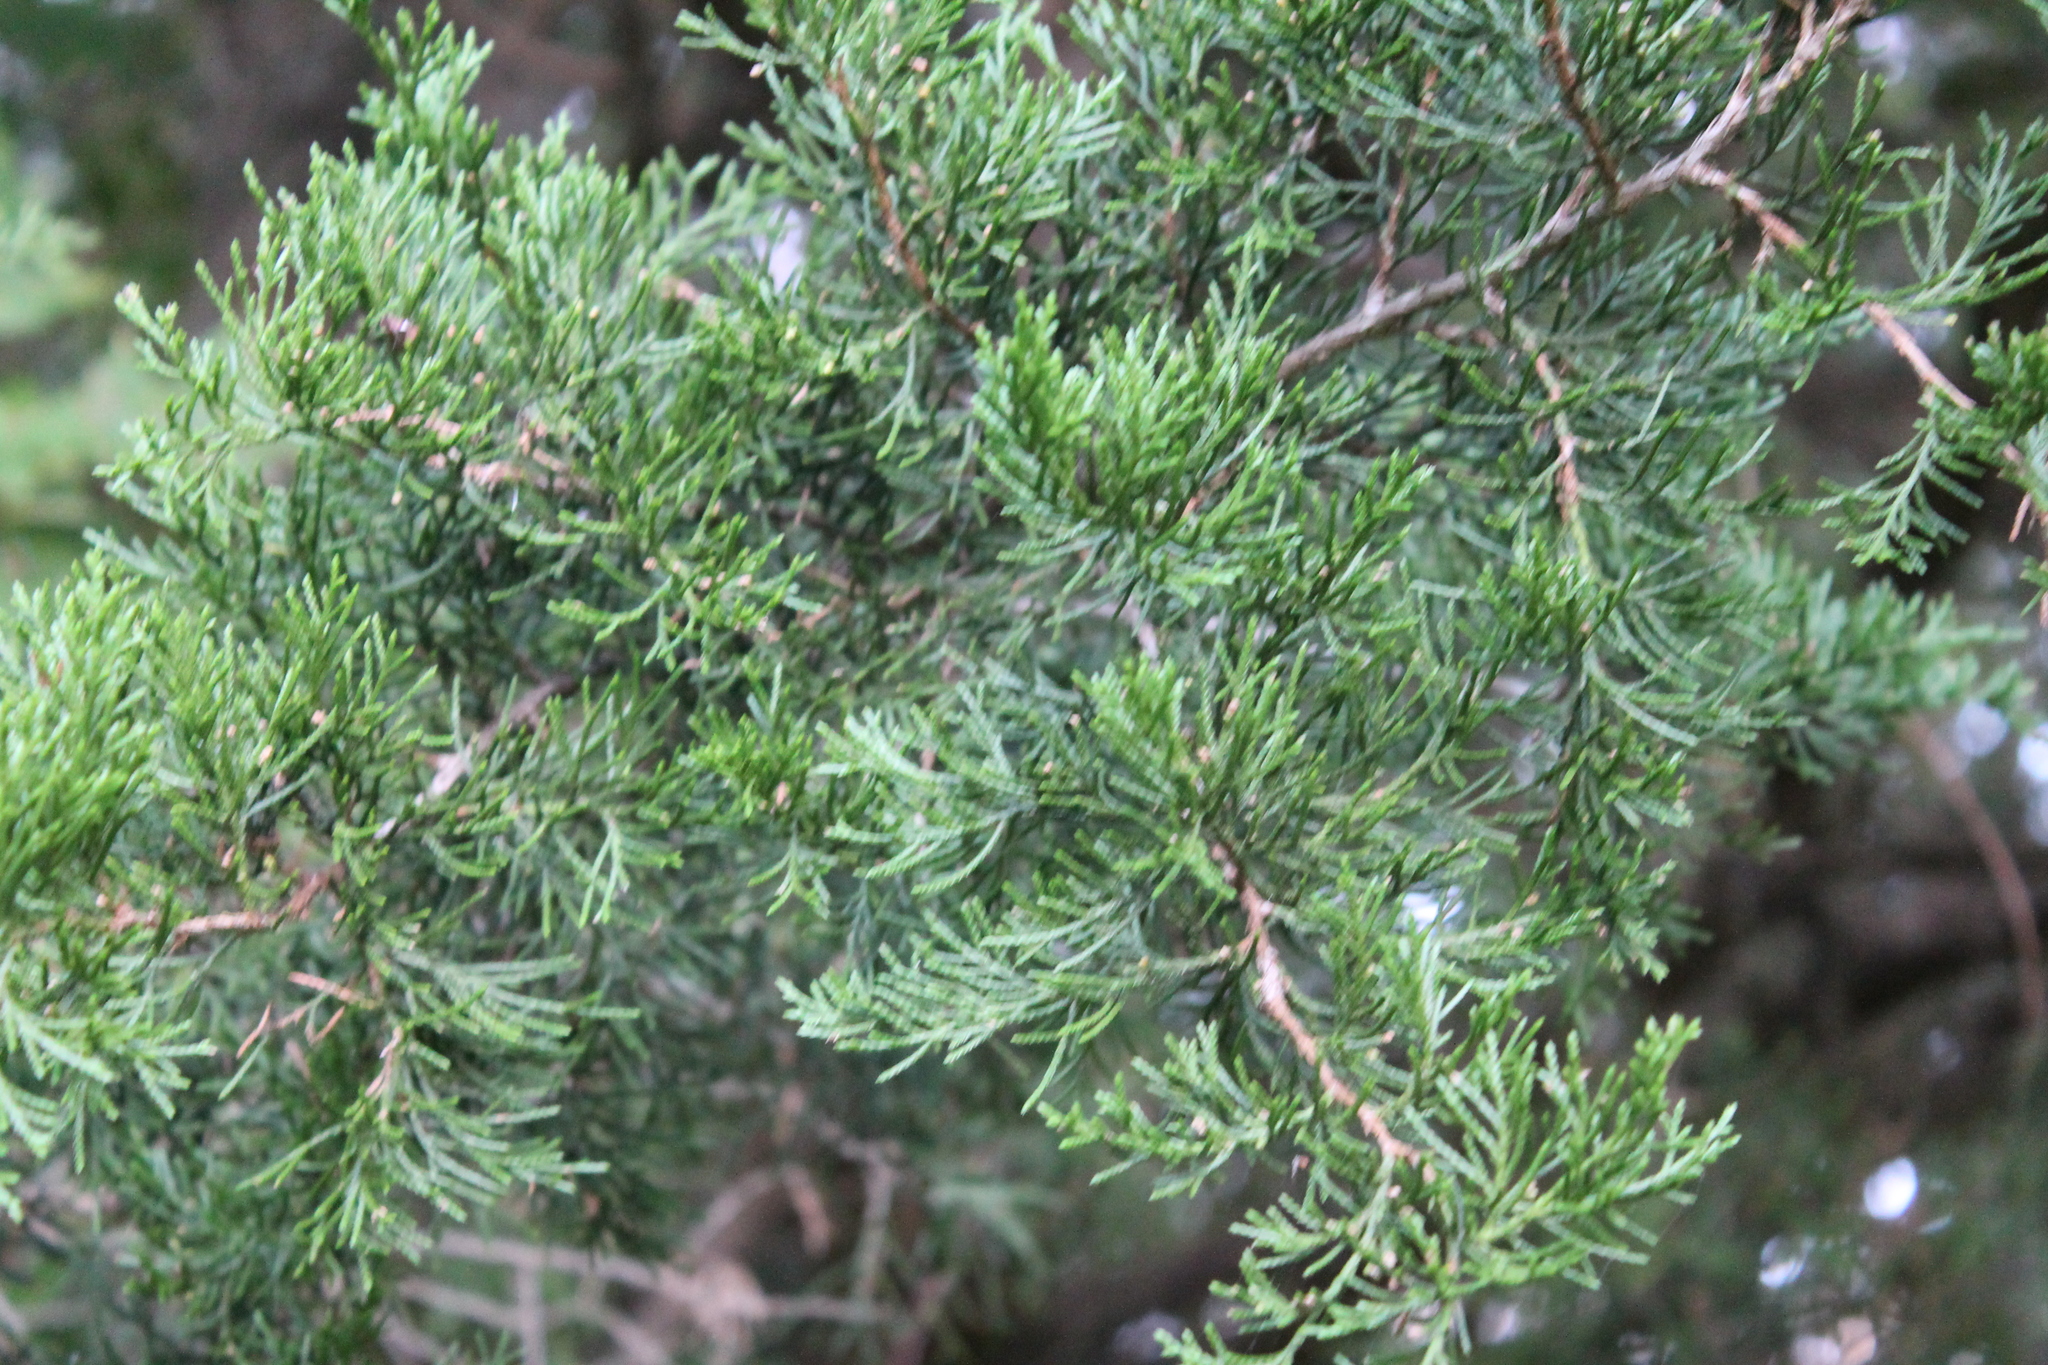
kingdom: Plantae
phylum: Tracheophyta
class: Pinopsida
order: Pinales
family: Cupressaceae
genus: Juniperus
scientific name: Juniperus virginiana
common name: Red juniper
